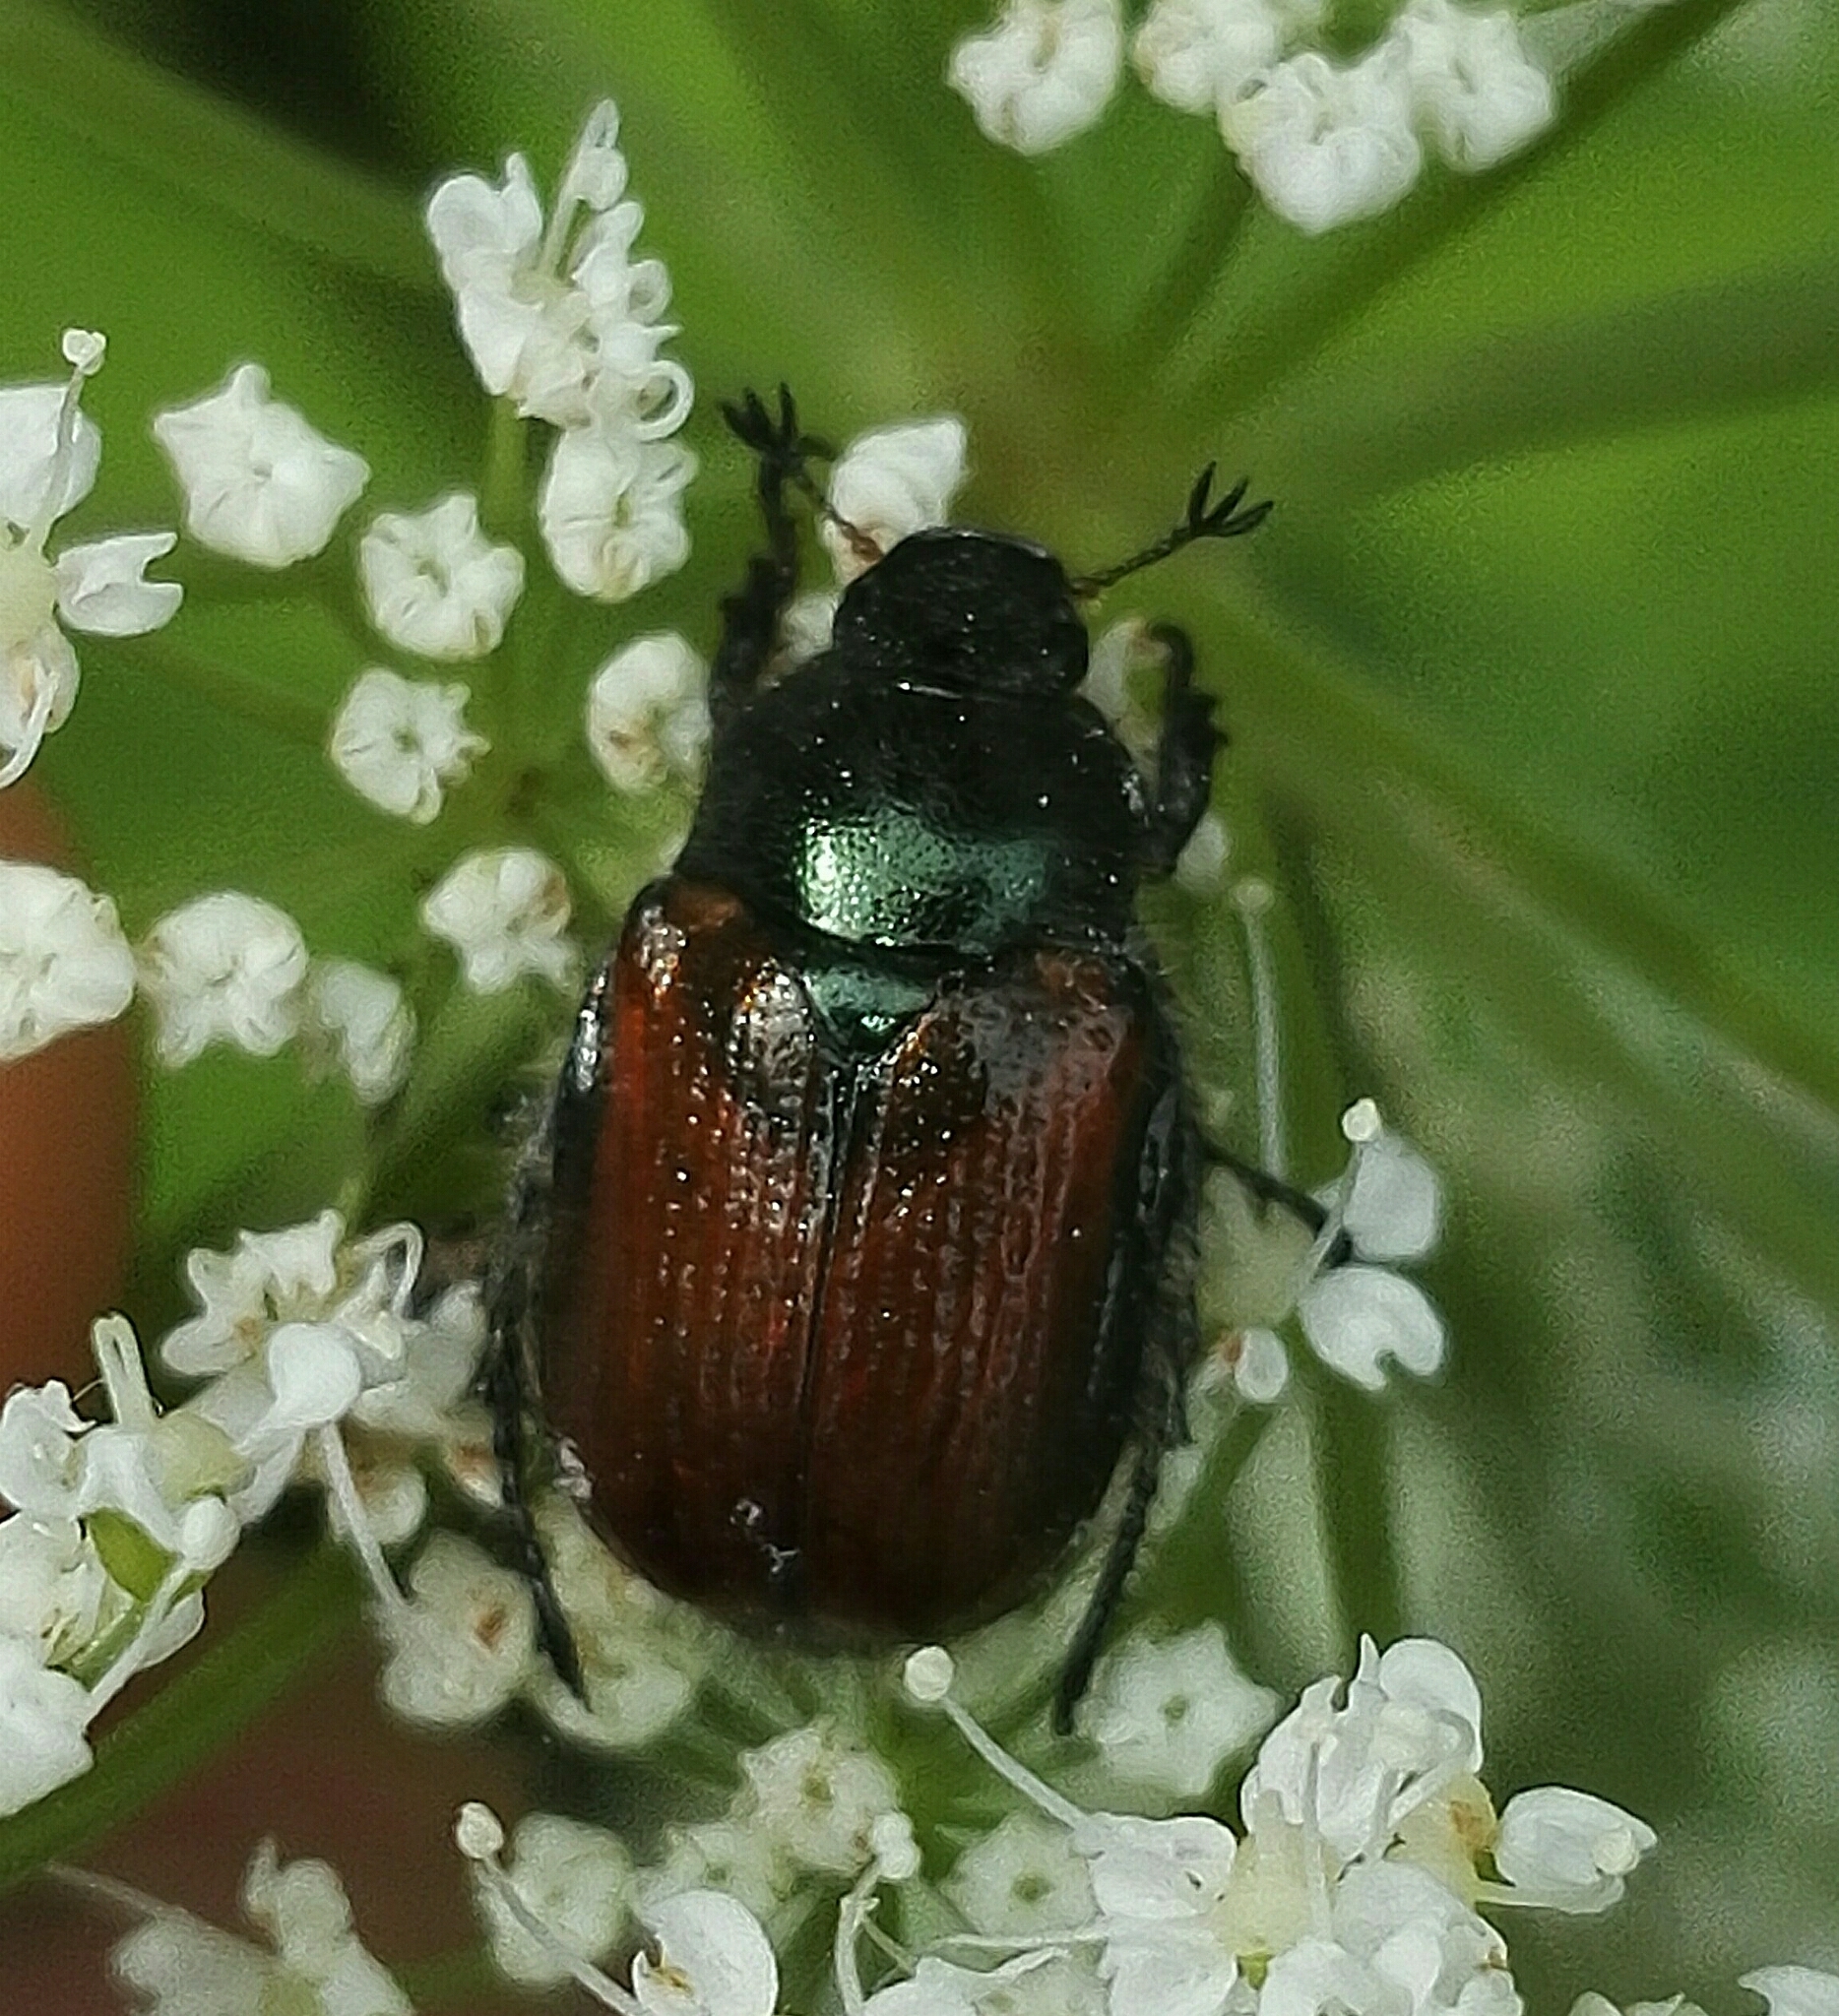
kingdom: Animalia
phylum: Arthropoda
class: Insecta
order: Coleoptera
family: Scarabaeidae
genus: Phyllopertha
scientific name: Phyllopertha horticola
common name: Garden chafer
